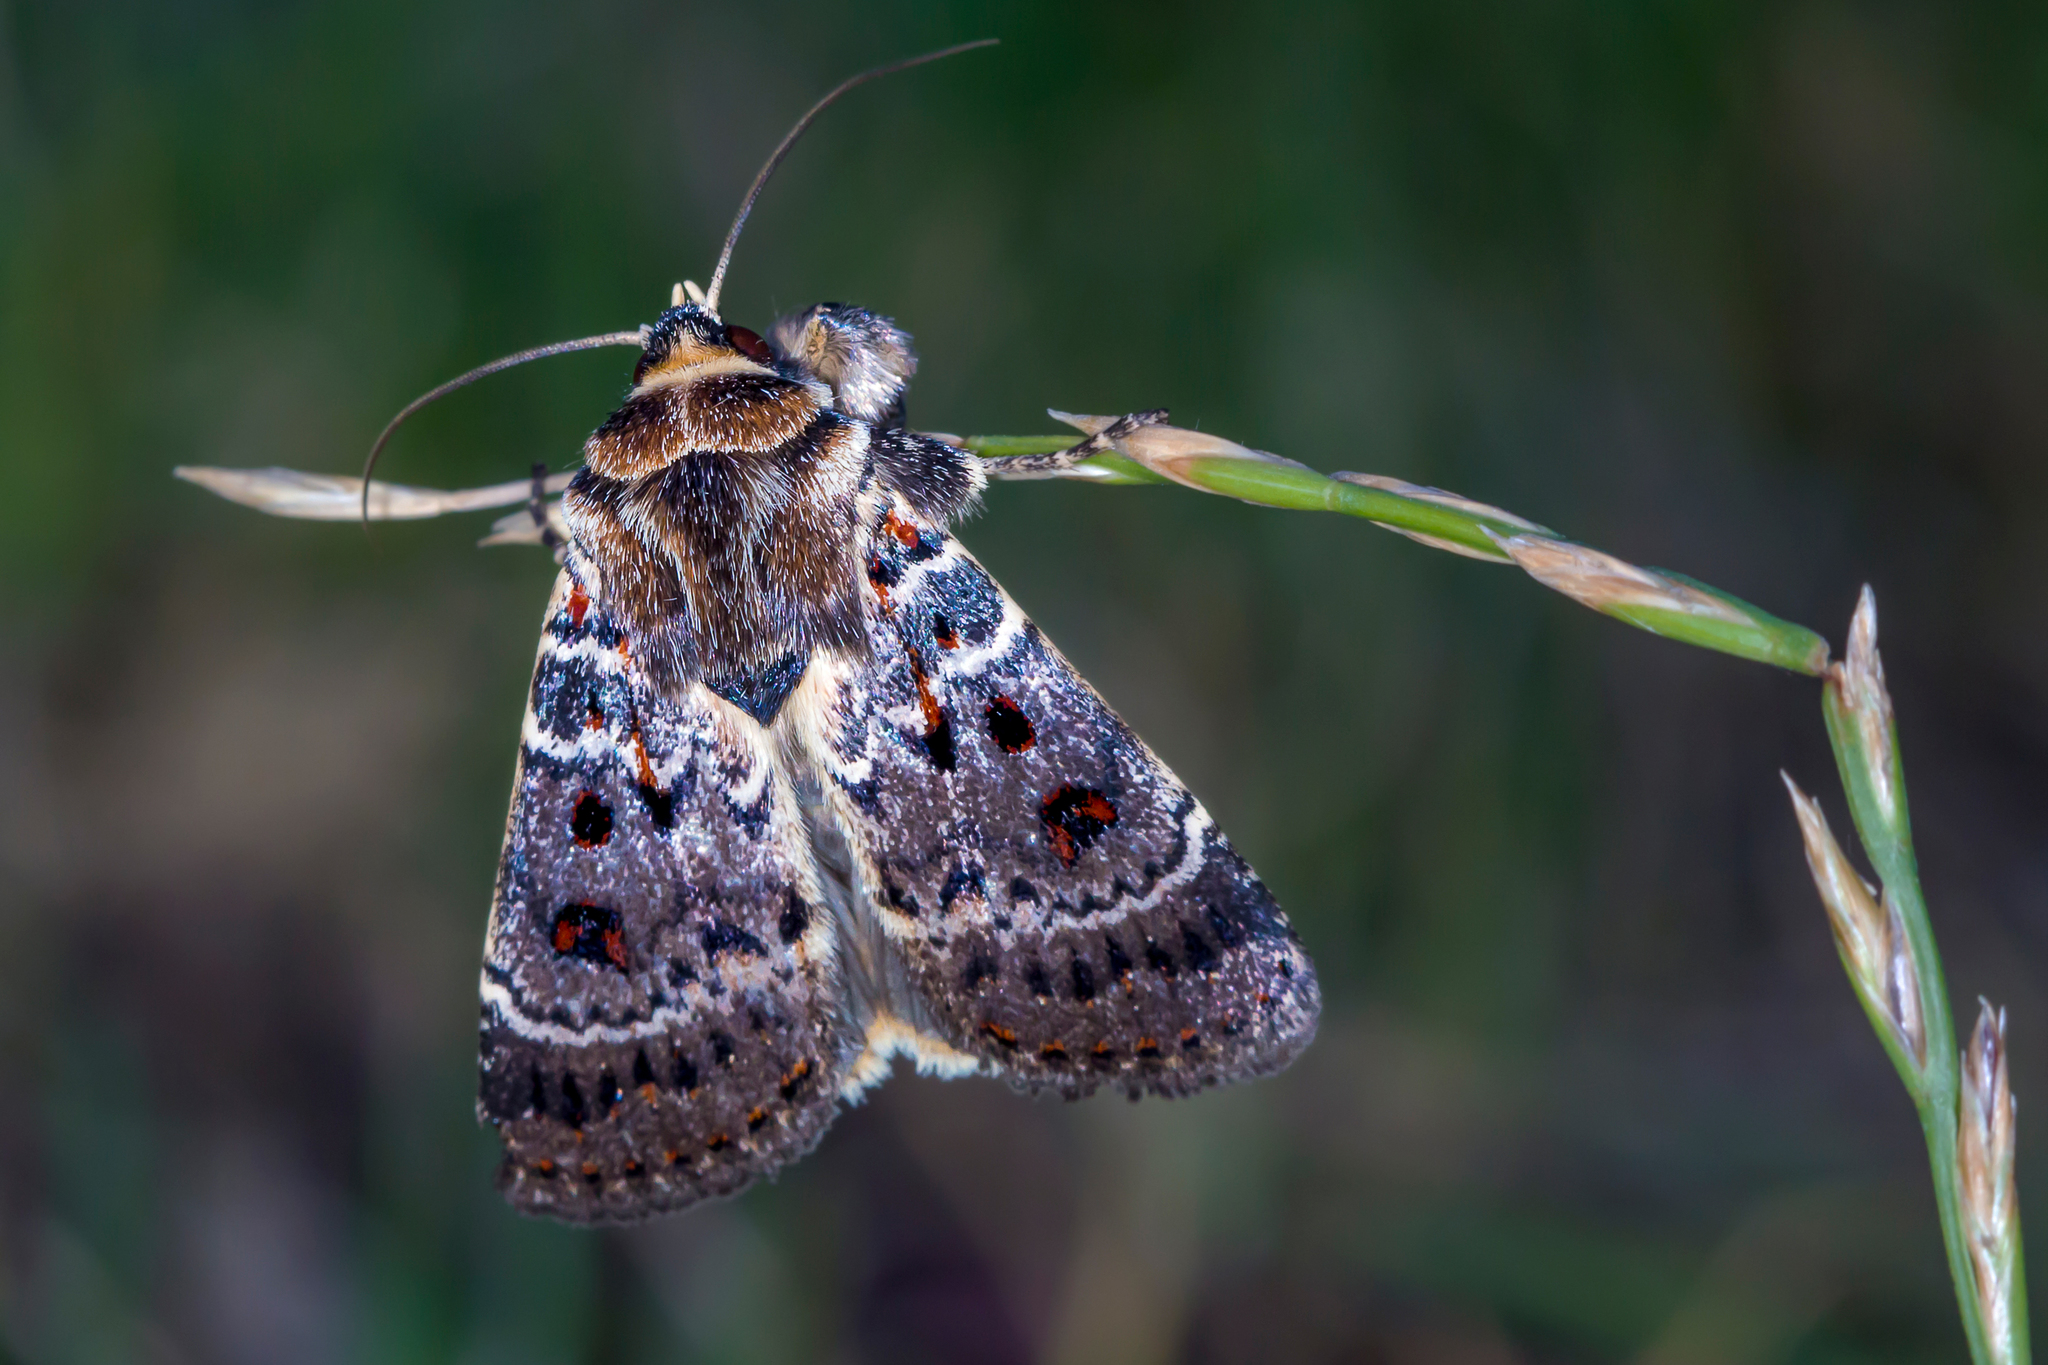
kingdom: Animalia
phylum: Arthropoda
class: Insecta
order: Lepidoptera
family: Noctuidae
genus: Proteuxoa
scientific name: Proteuxoa sanguinipuncta
